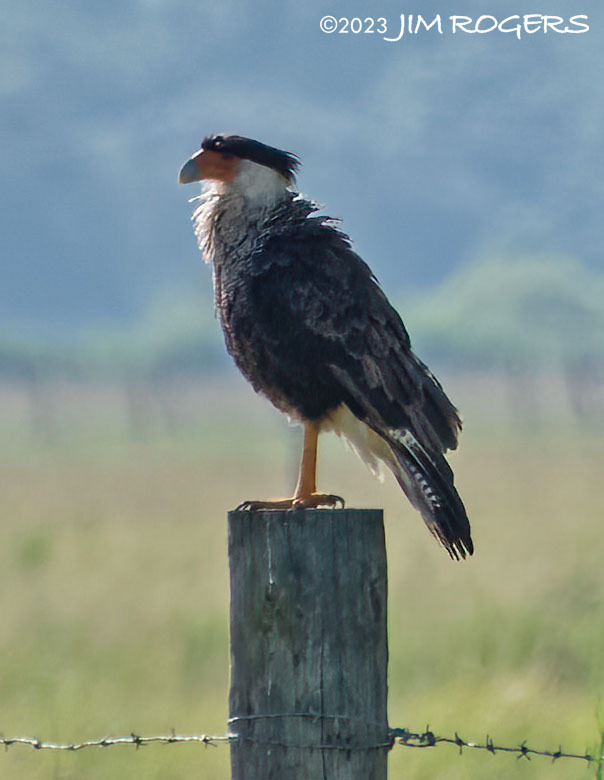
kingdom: Animalia
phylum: Chordata
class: Aves
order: Falconiformes
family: Falconidae
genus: Caracara
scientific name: Caracara plancus
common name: Southern caracara
